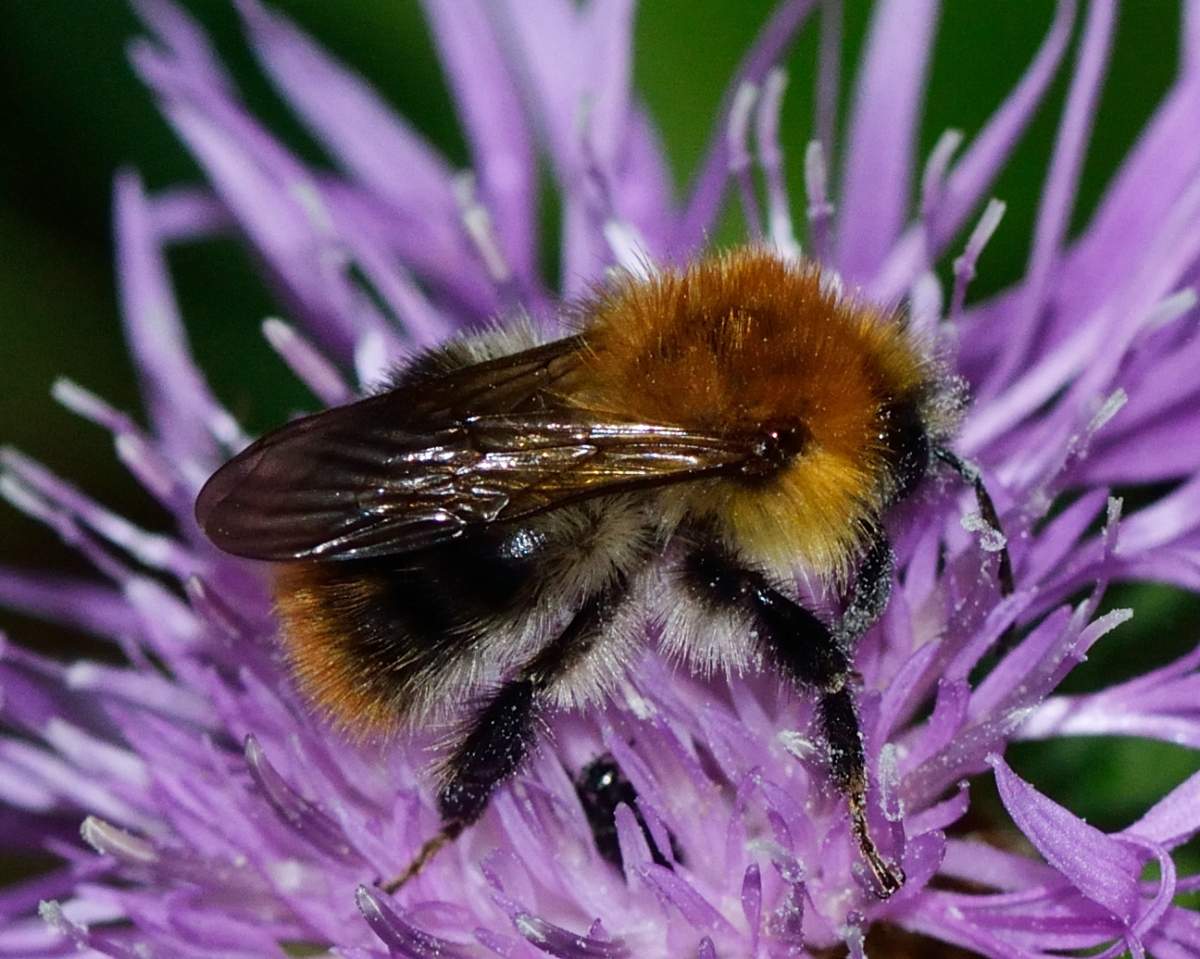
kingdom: Animalia
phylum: Arthropoda
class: Insecta
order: Hymenoptera
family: Apidae
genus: Bombus
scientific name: Bombus pascuorum
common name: Common carder bee
